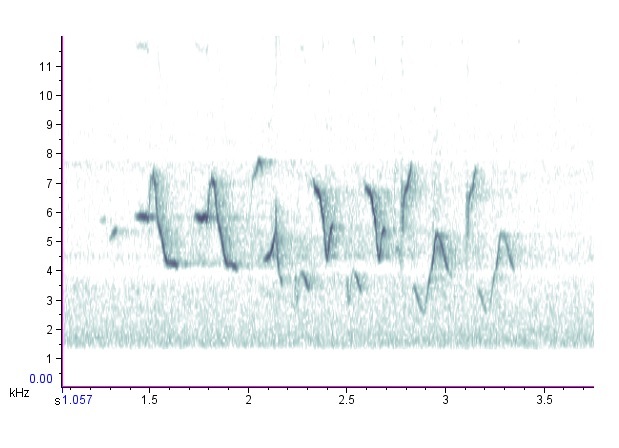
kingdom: Animalia
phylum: Chordata
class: Aves
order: Passeriformes
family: Cardinalidae
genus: Passerina
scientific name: Passerina cyanea
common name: Indigo bunting
